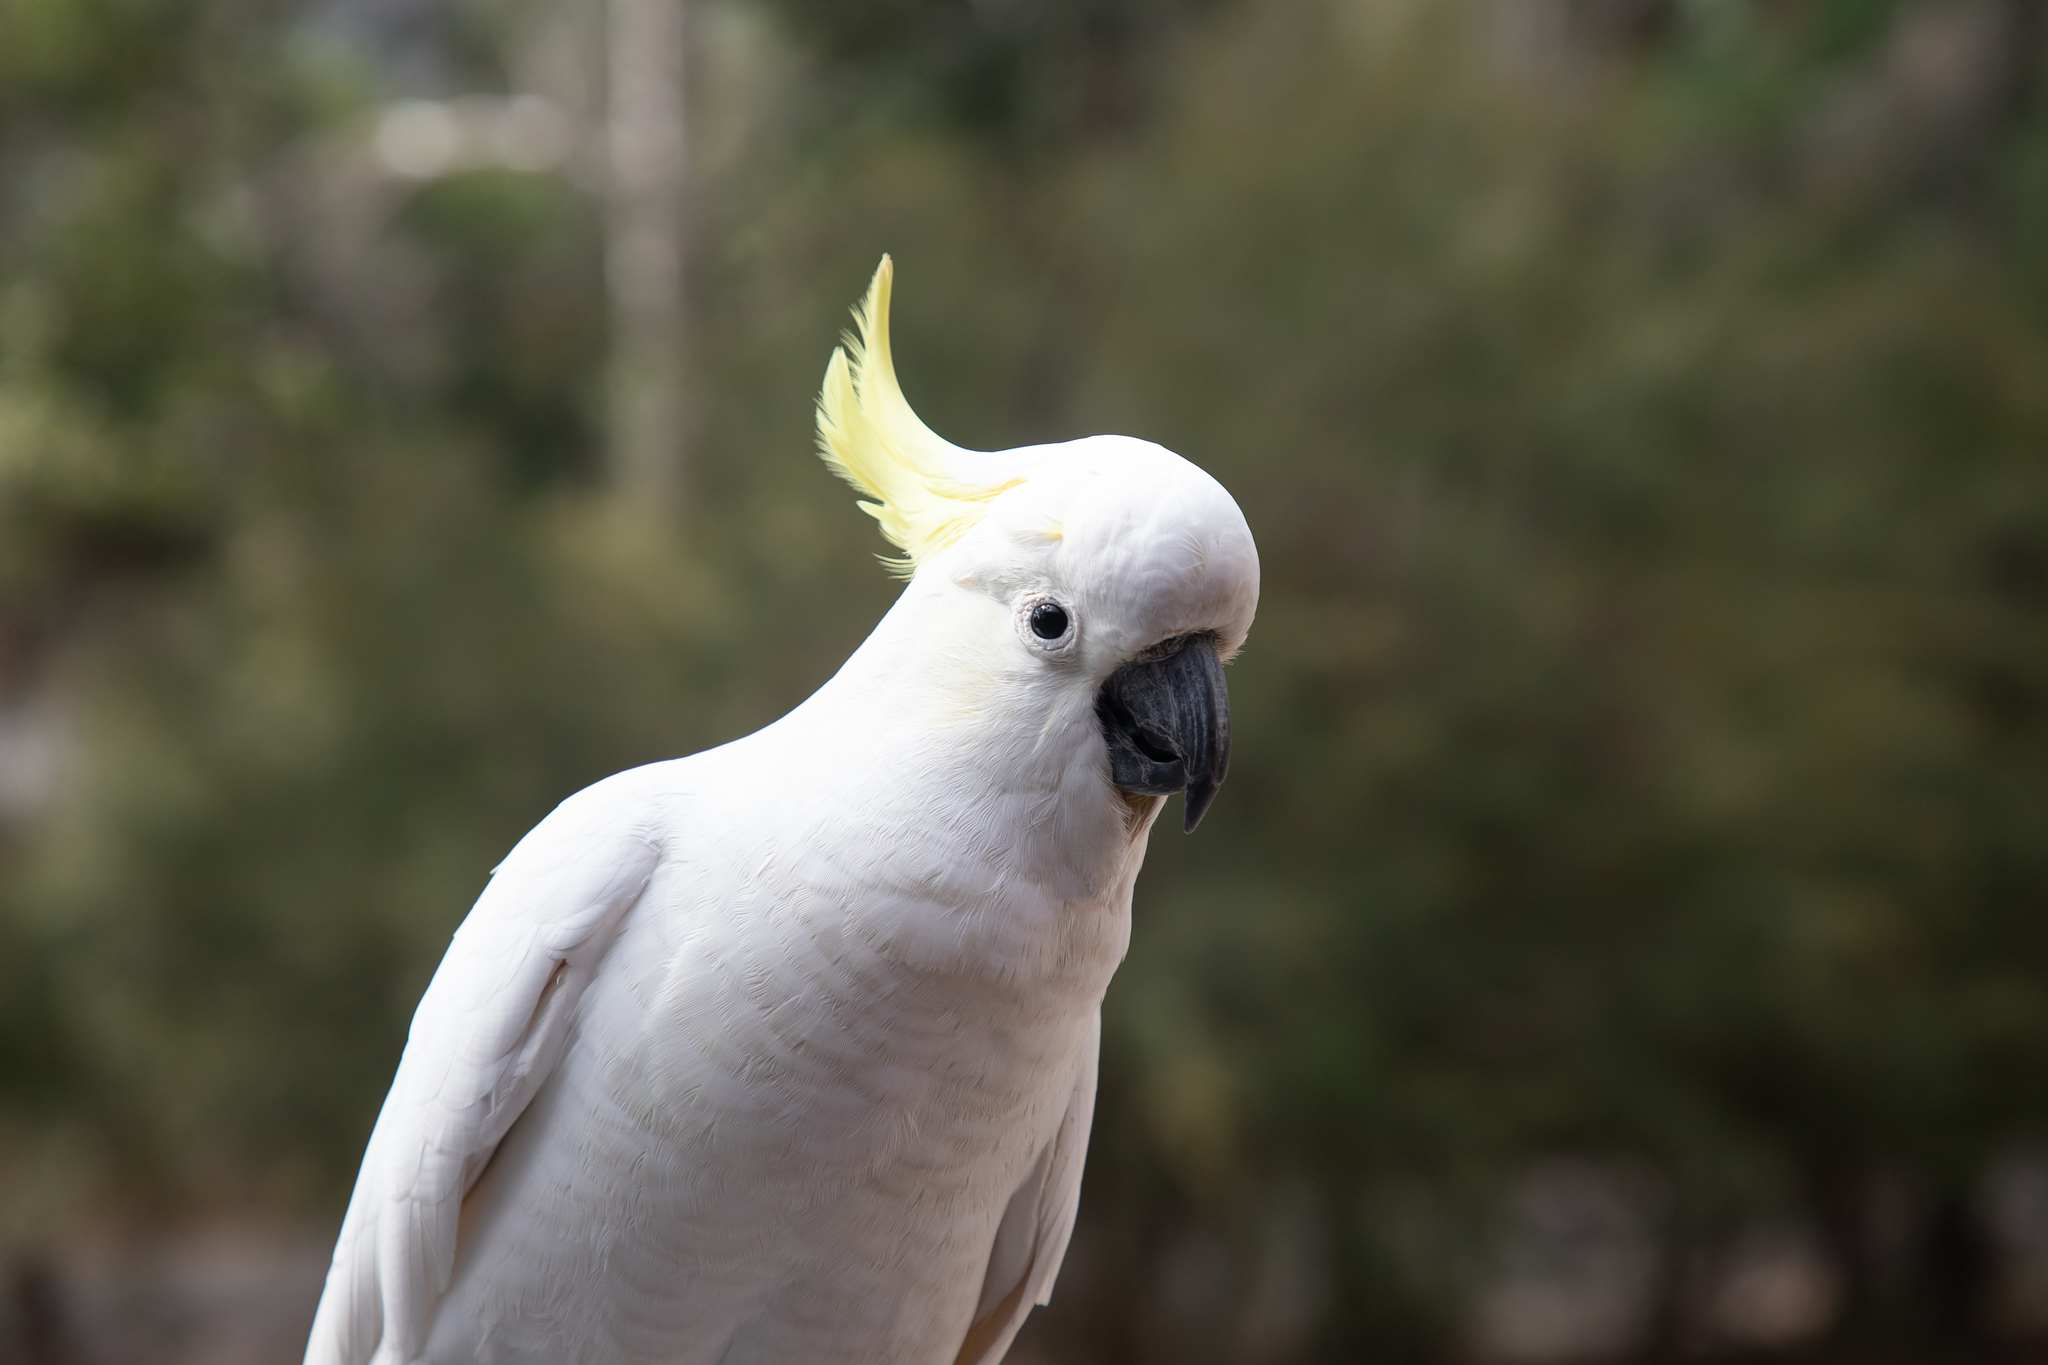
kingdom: Animalia
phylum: Chordata
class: Aves
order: Psittaciformes
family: Psittacidae
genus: Cacatua
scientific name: Cacatua galerita
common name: Sulphur-crested cockatoo
